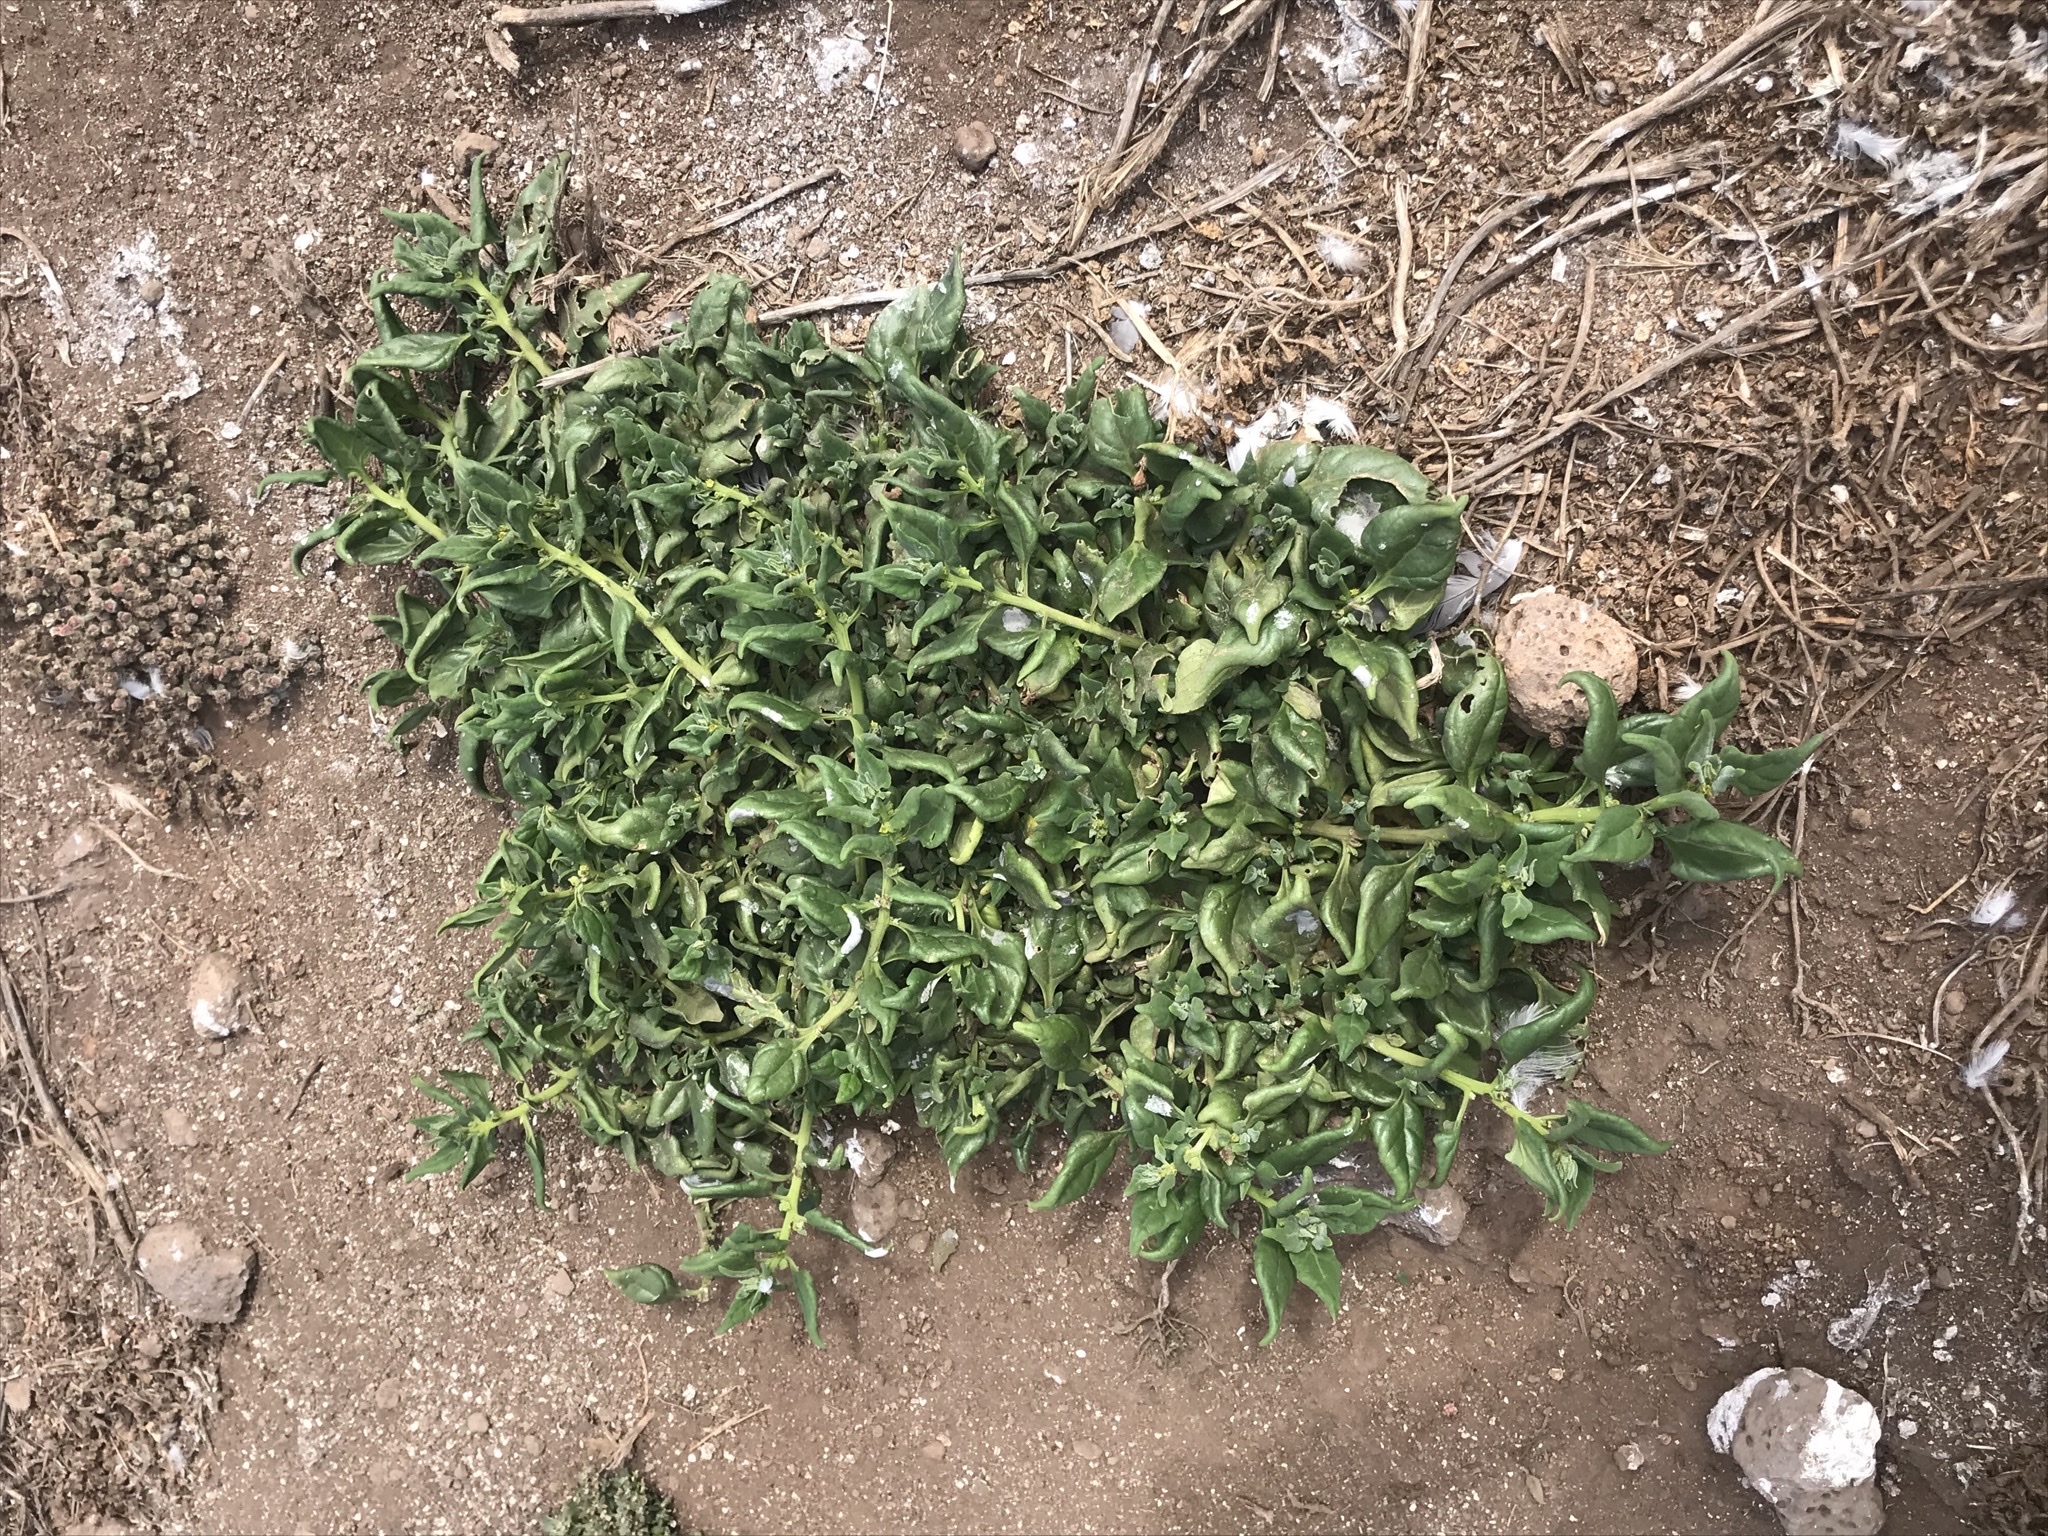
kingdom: Plantae
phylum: Tracheophyta
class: Magnoliopsida
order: Caryophyllales
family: Aizoaceae
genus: Tetragonia
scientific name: Tetragonia tetragonoides
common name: New zealand-spinach
